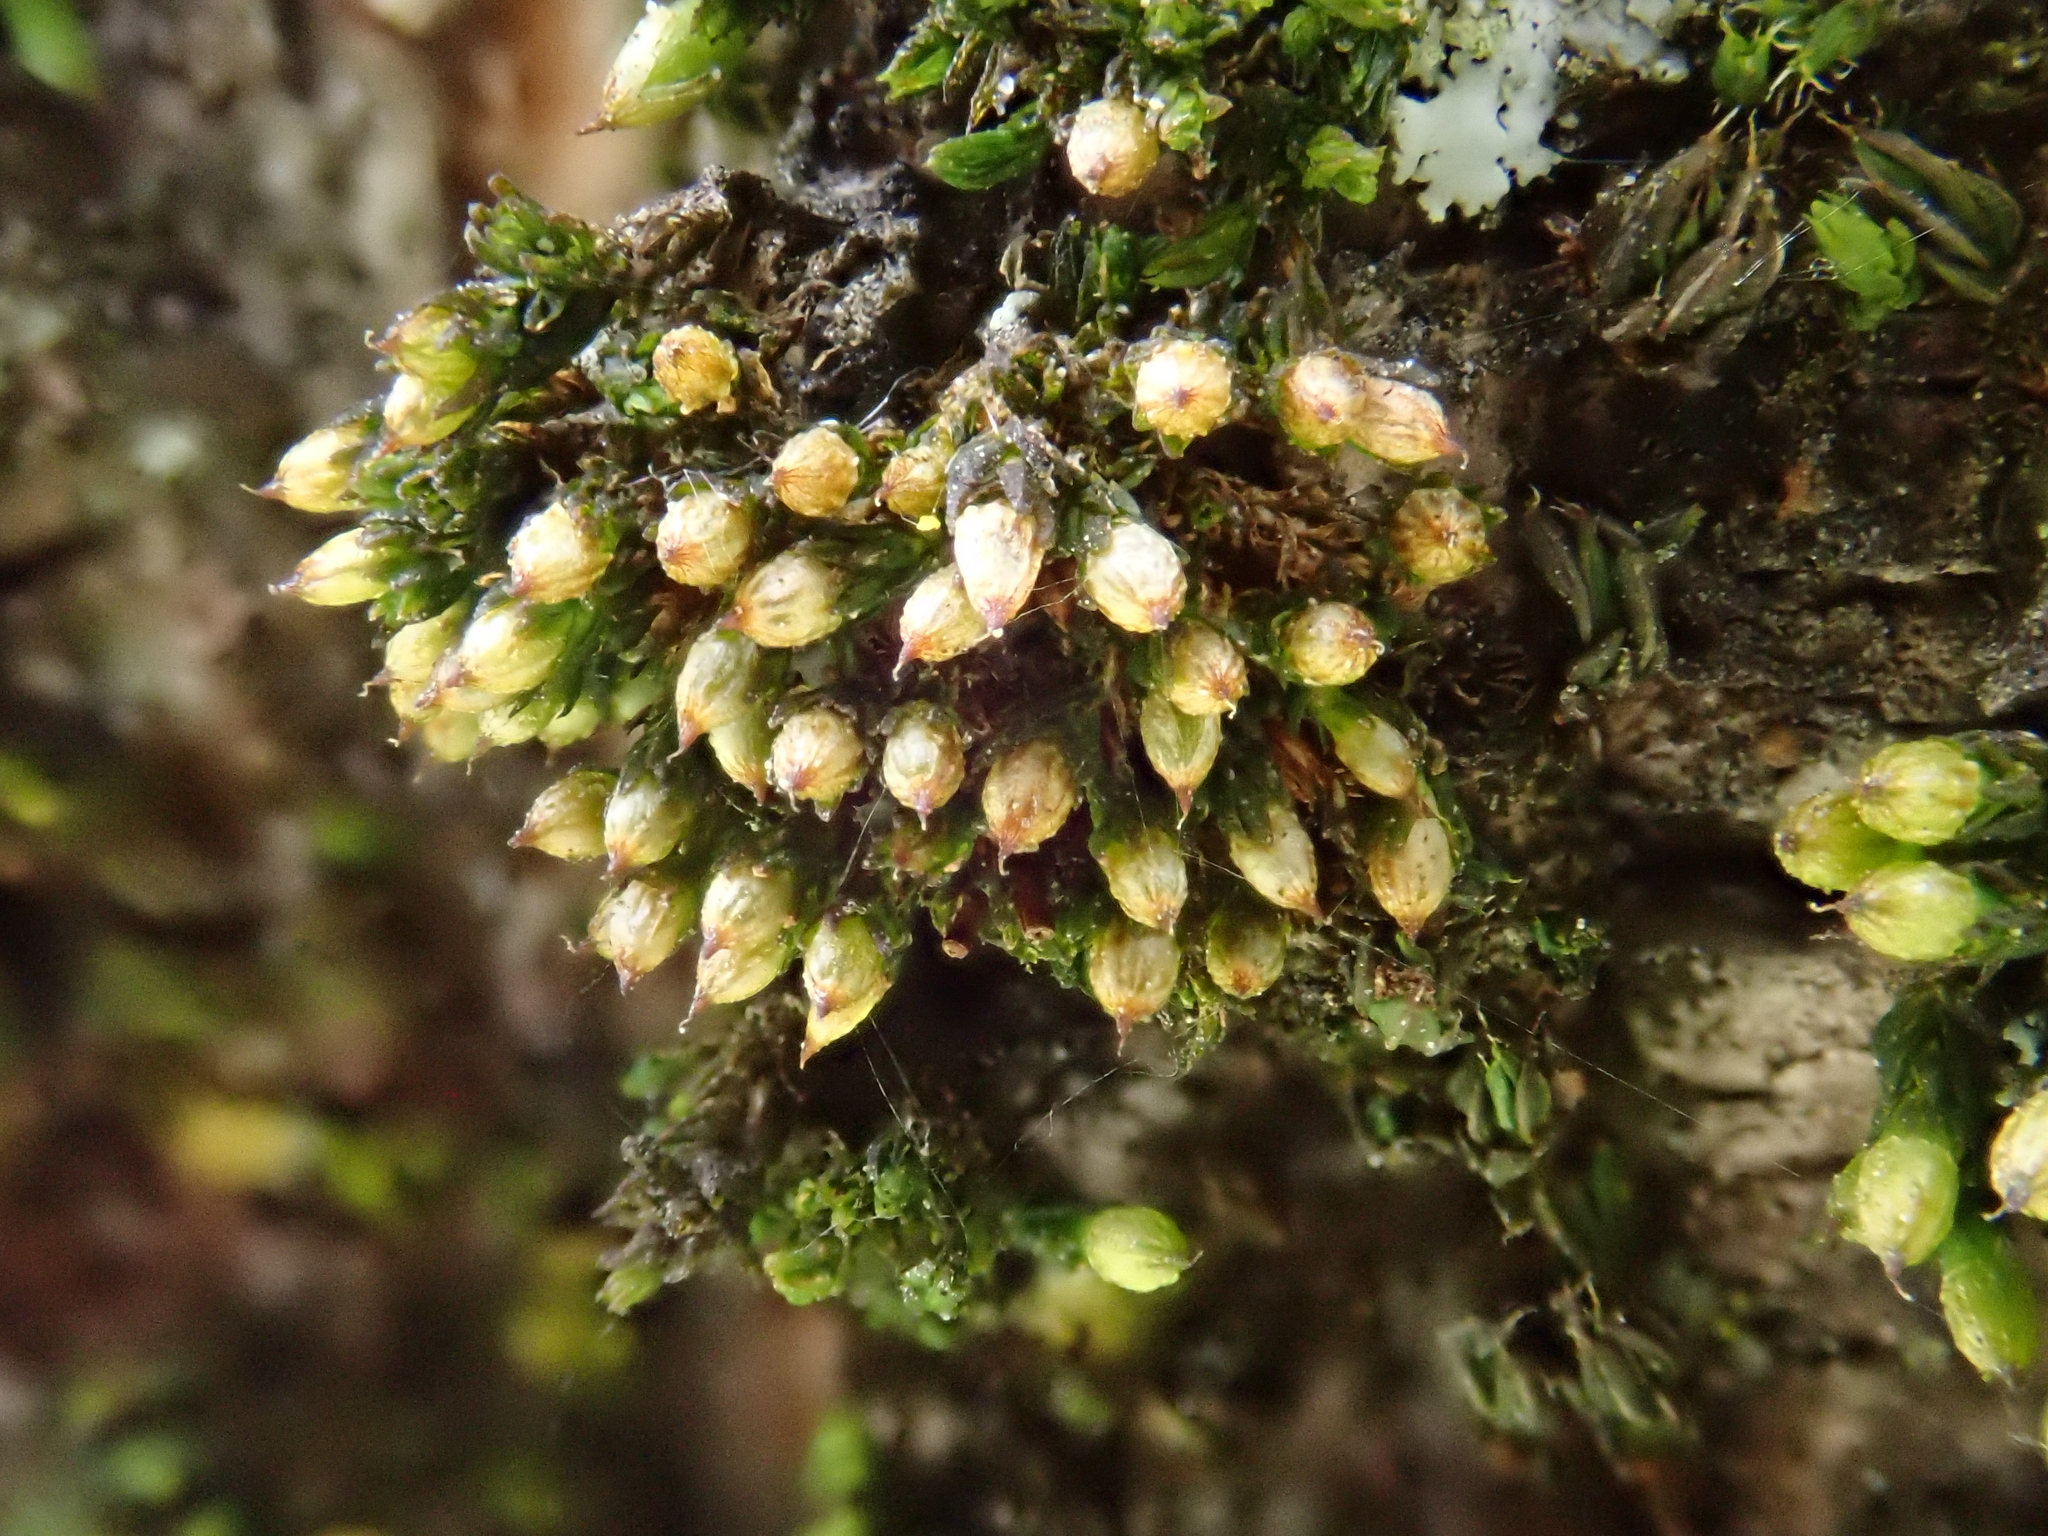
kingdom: Plantae
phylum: Bryophyta
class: Bryopsida
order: Orthotrichales
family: Orthotrichaceae
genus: Orthotrichum
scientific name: Orthotrichum schimperi
